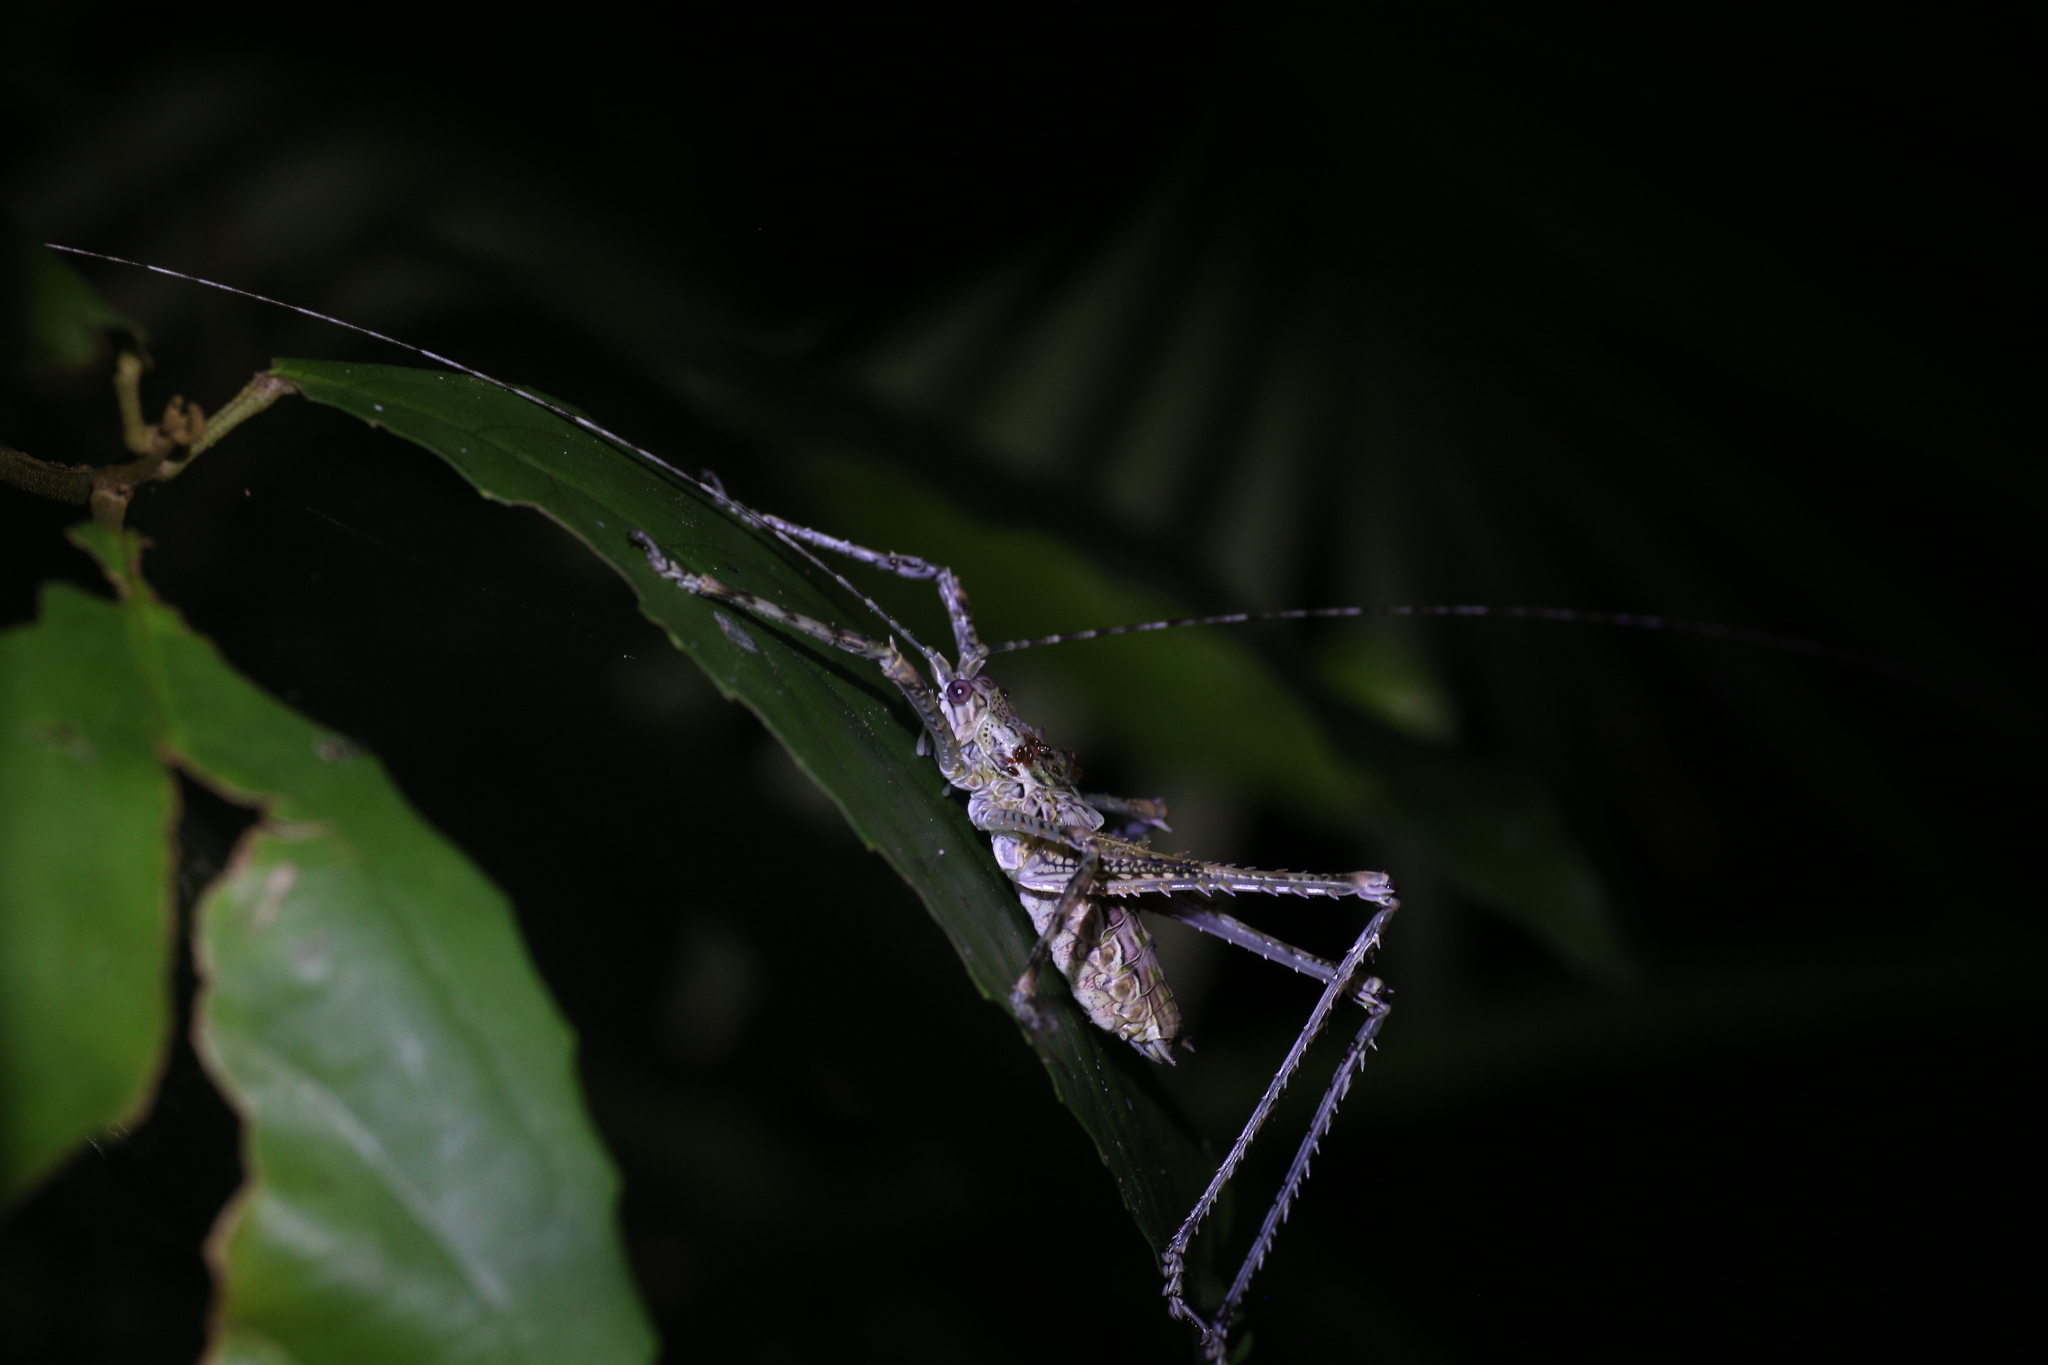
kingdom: Animalia
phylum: Arthropoda
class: Insecta
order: Orthoptera
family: Tettigoniidae
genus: Phricta
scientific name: Phricta spinosa
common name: Giant spiny forest katydid
